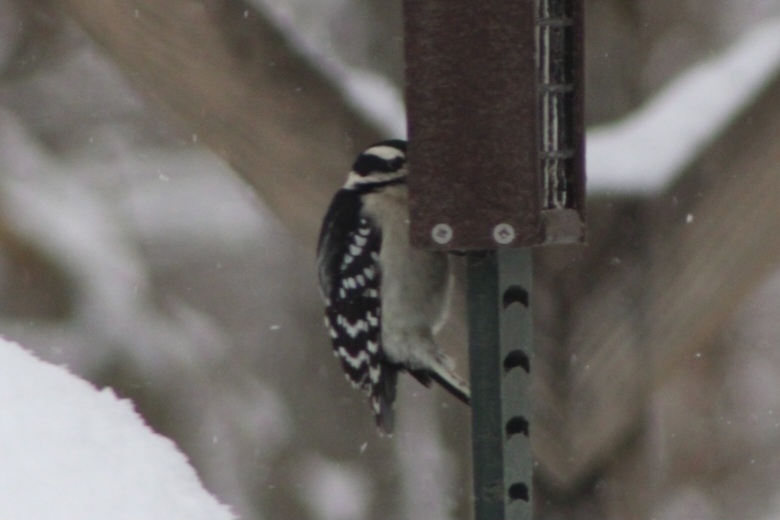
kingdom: Animalia
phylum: Chordata
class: Aves
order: Piciformes
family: Picidae
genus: Dryobates
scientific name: Dryobates pubescens
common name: Downy woodpecker
